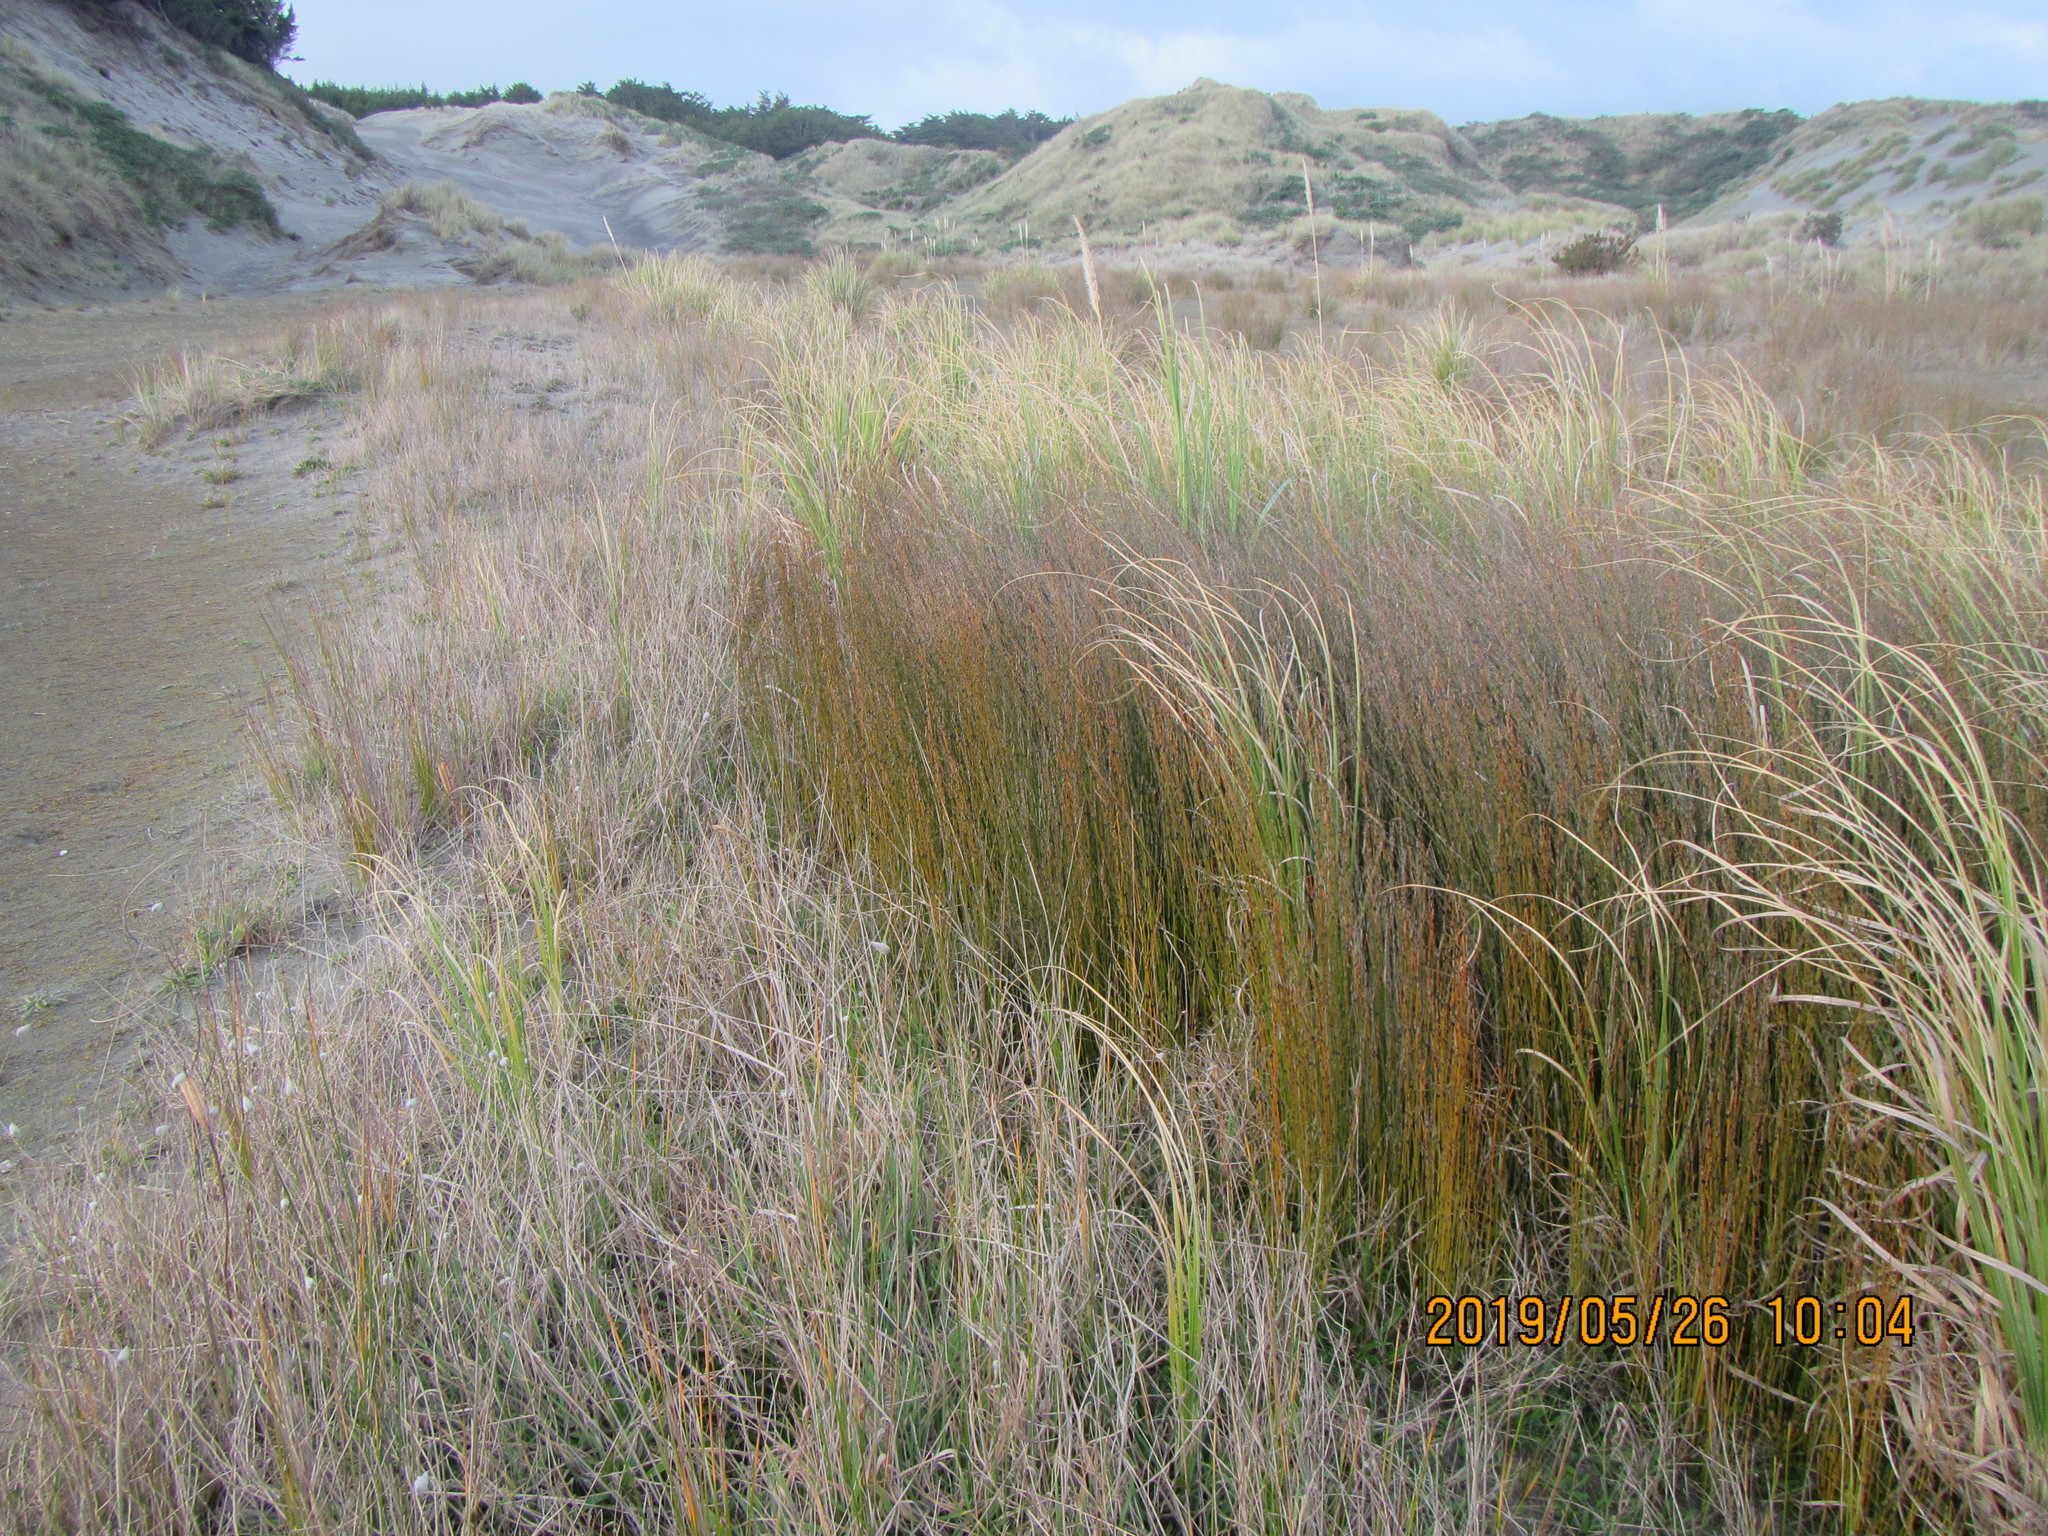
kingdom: Plantae
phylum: Tracheophyta
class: Liliopsida
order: Poales
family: Restionaceae
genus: Apodasmia
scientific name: Apodasmia similis
